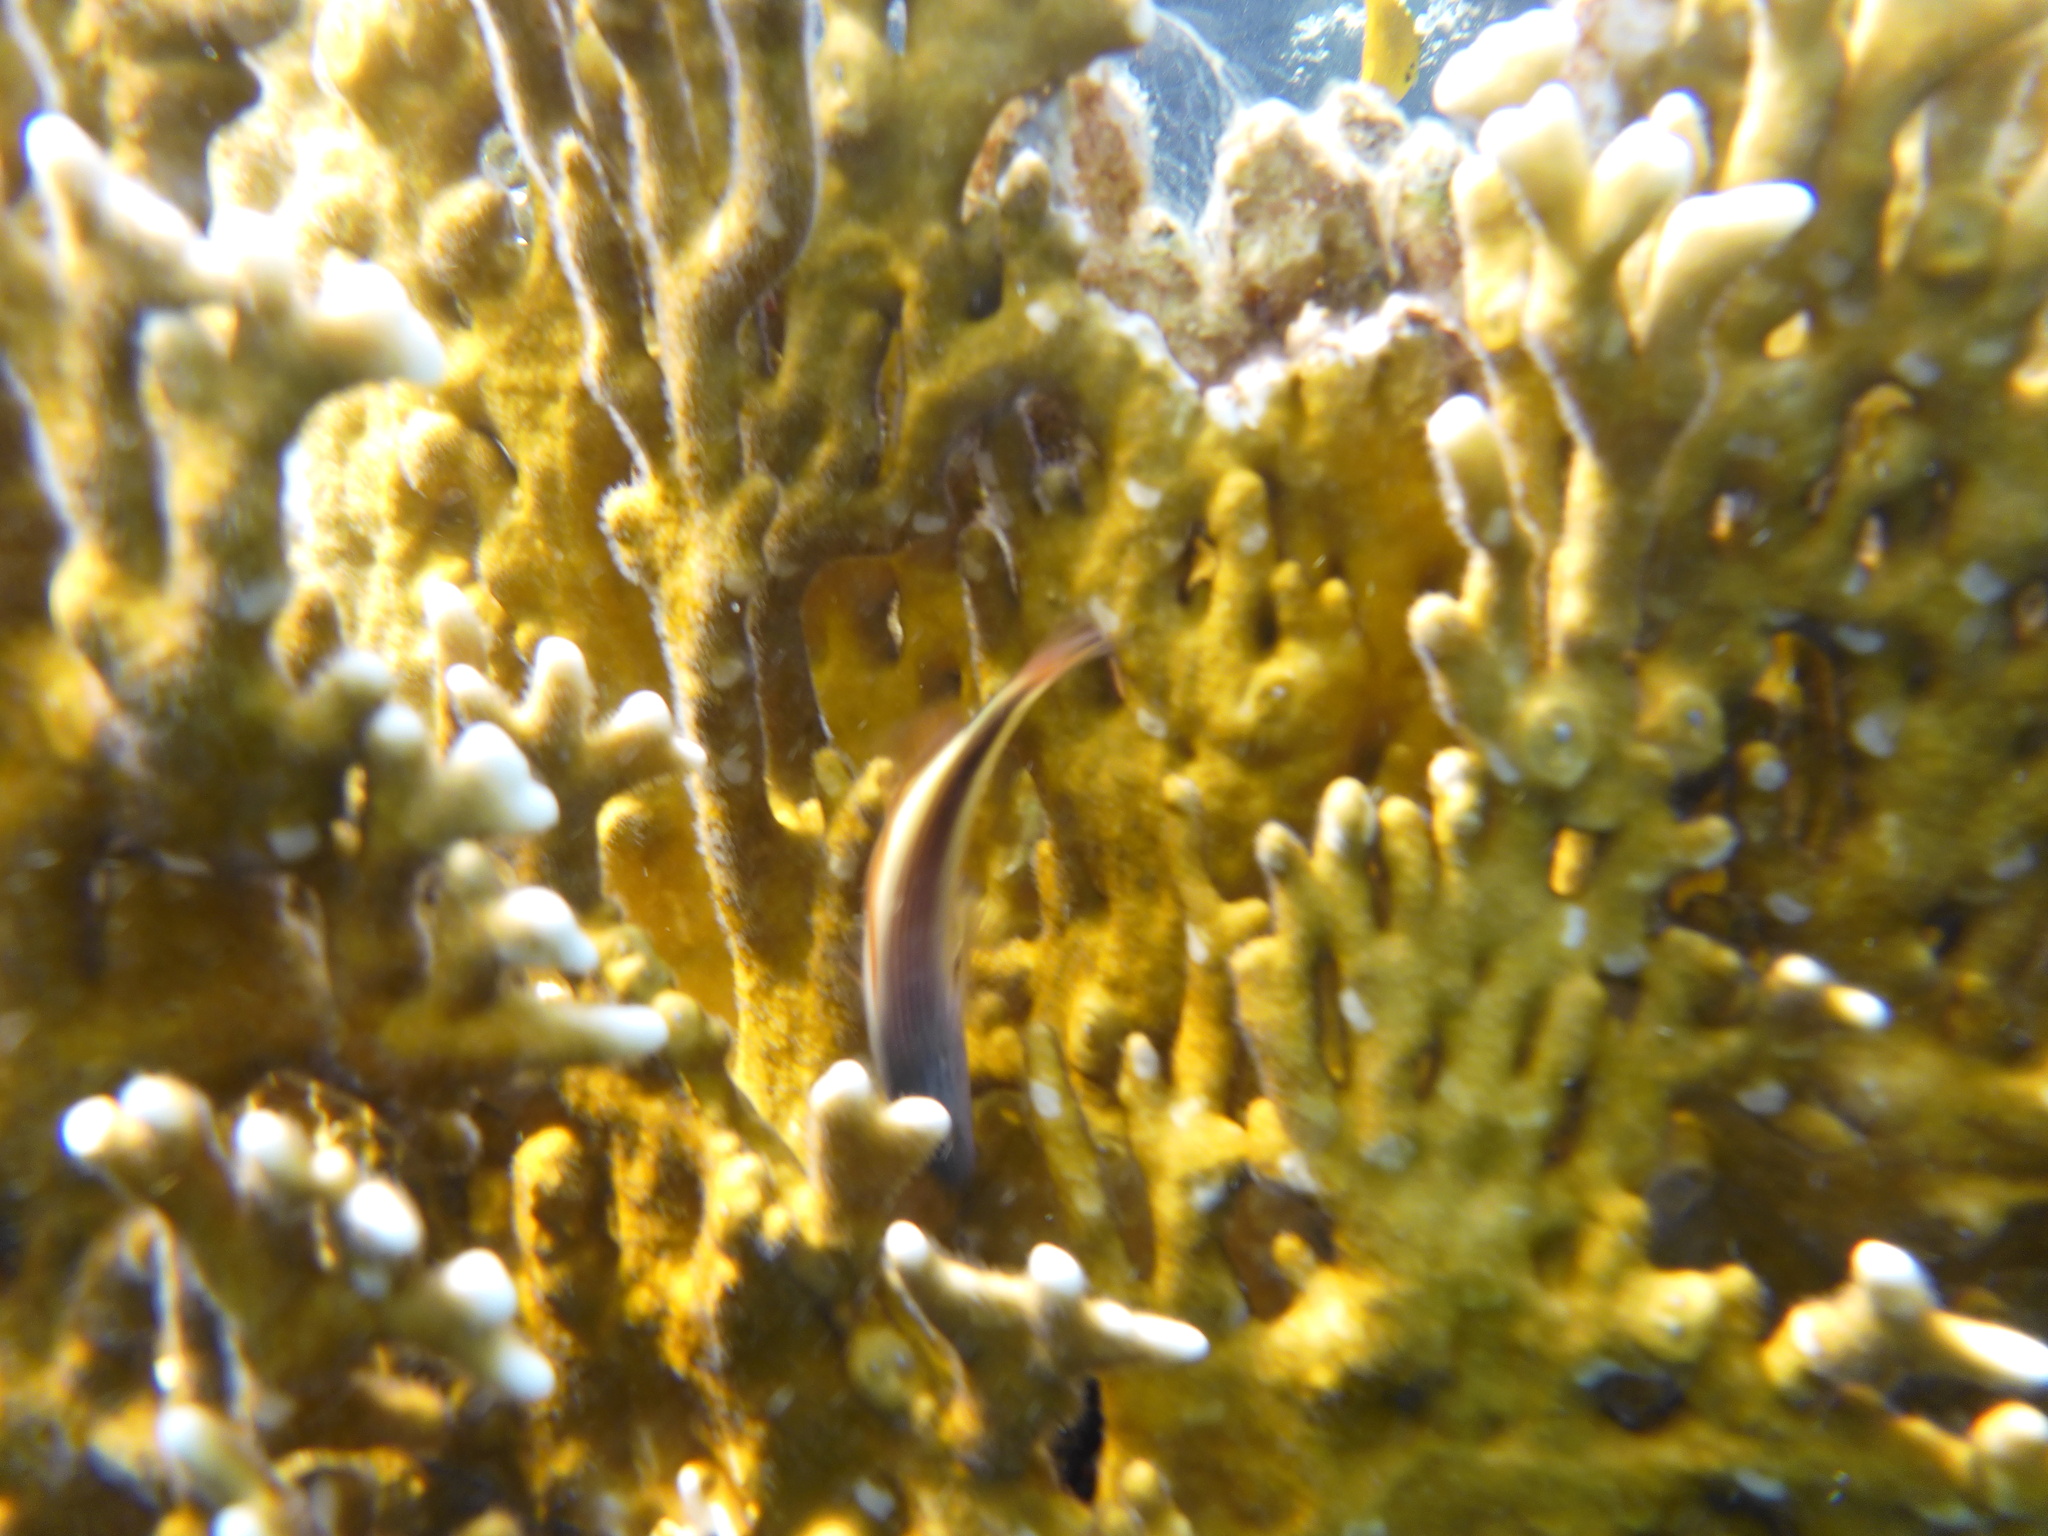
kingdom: Animalia
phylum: Chordata
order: Perciformes
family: Cirrhitidae
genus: Paracirrhites
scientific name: Paracirrhites forsteri
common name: Freckled hawkfish
